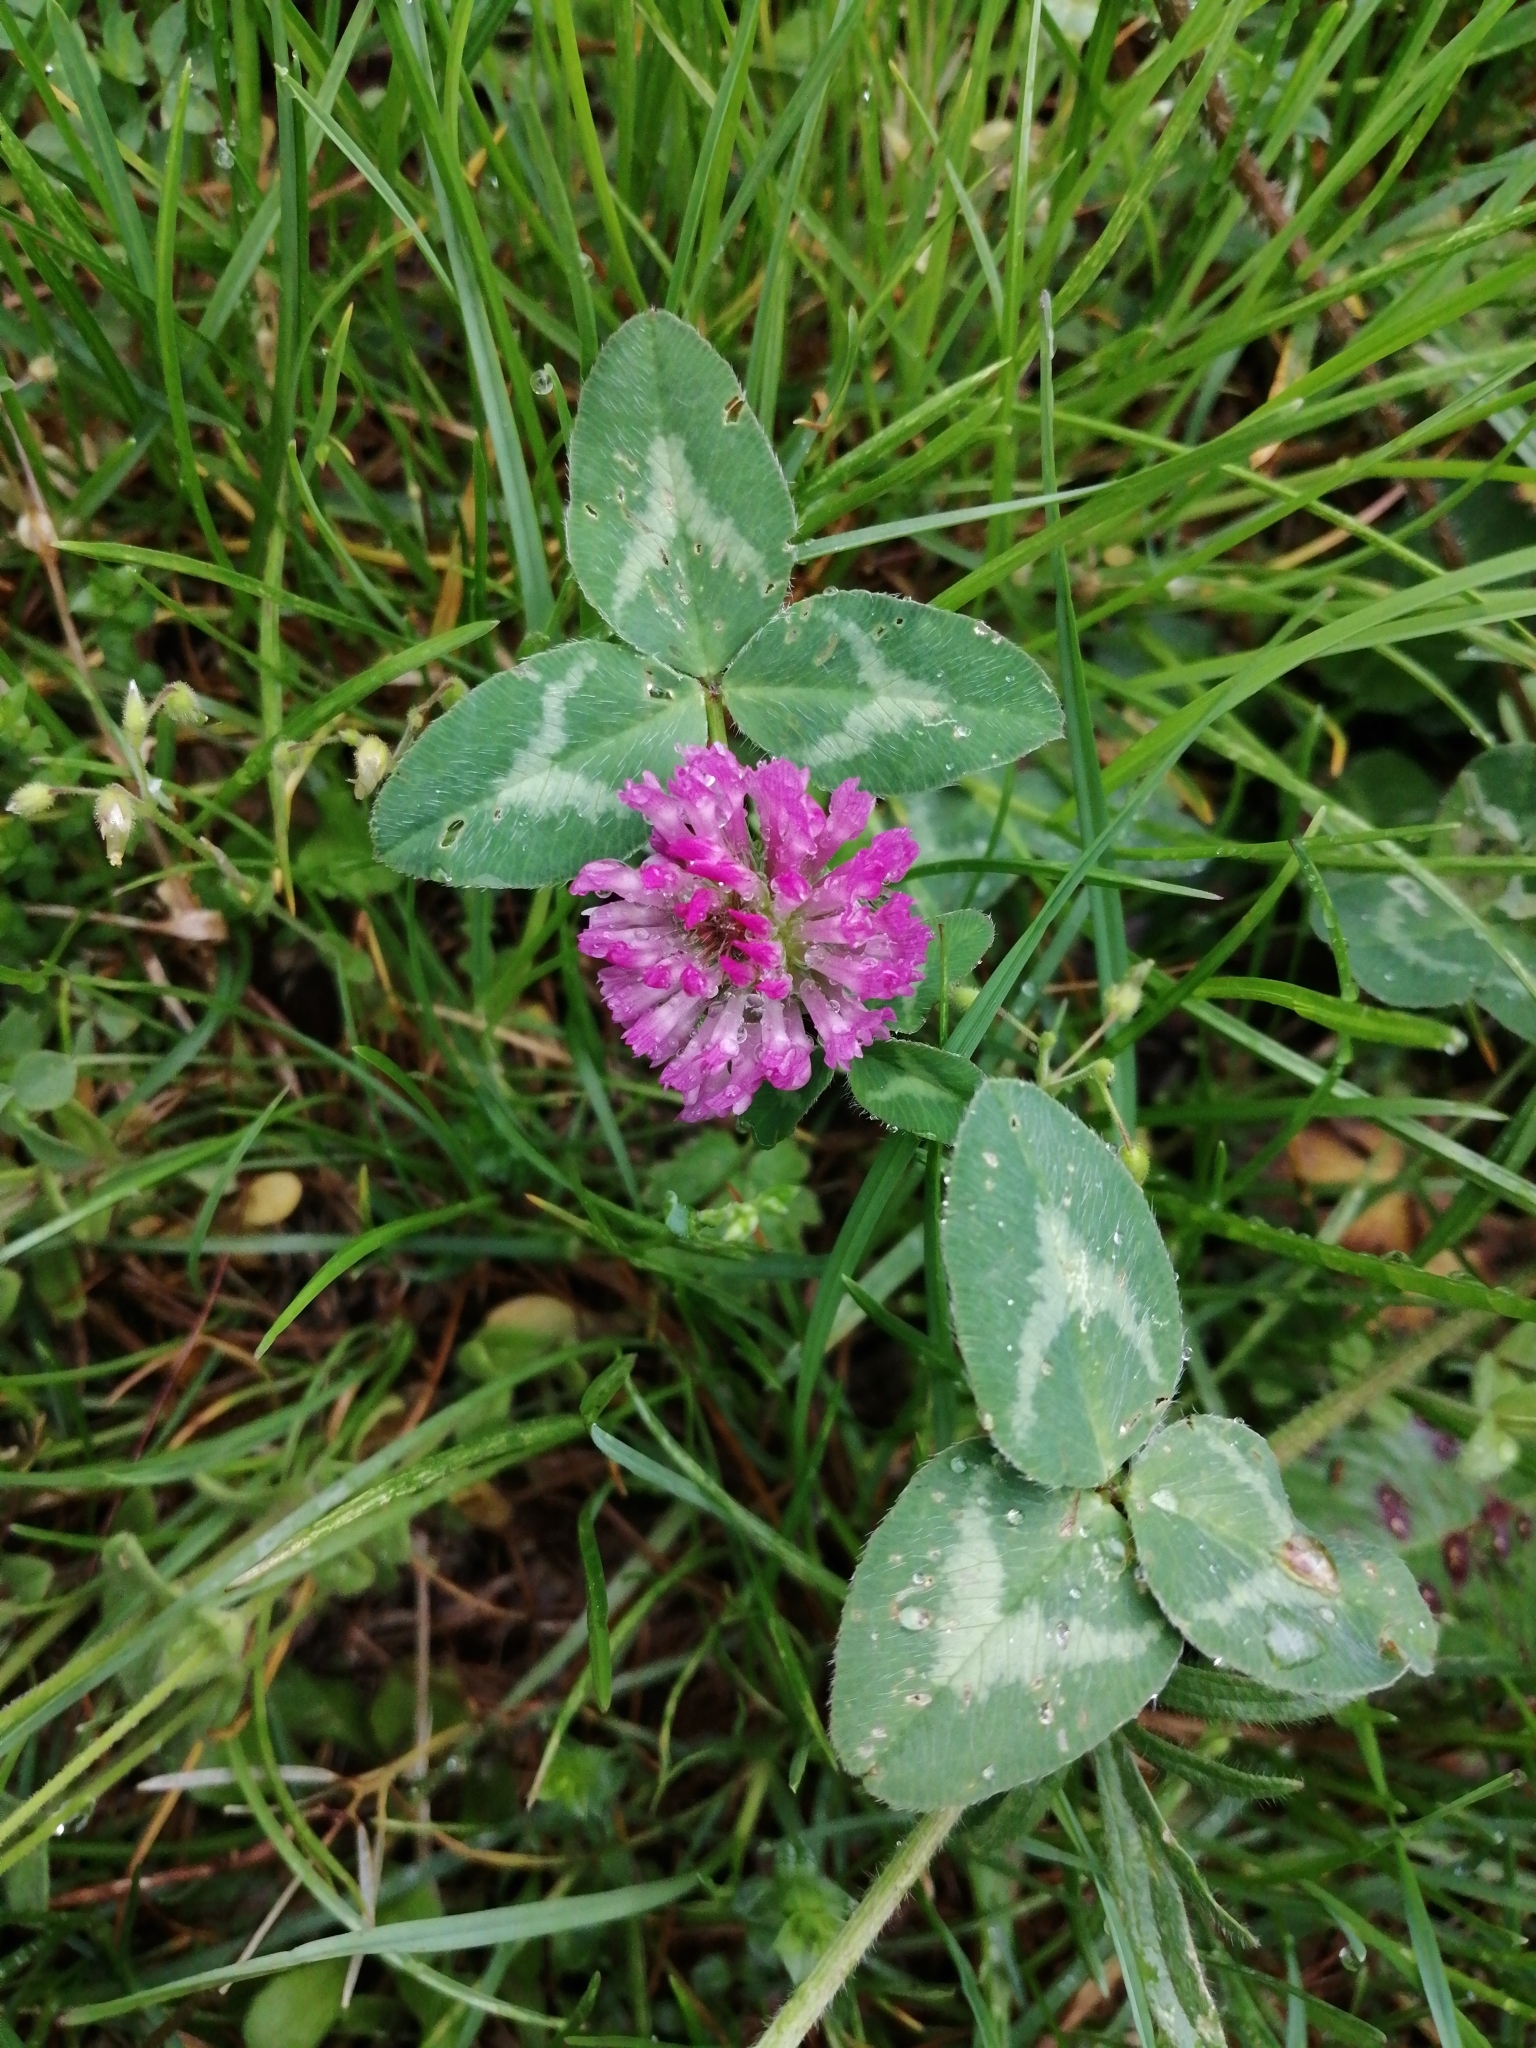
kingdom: Plantae
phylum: Tracheophyta
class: Magnoliopsida
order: Fabales
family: Fabaceae
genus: Trifolium
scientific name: Trifolium pratense
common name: Red clover
